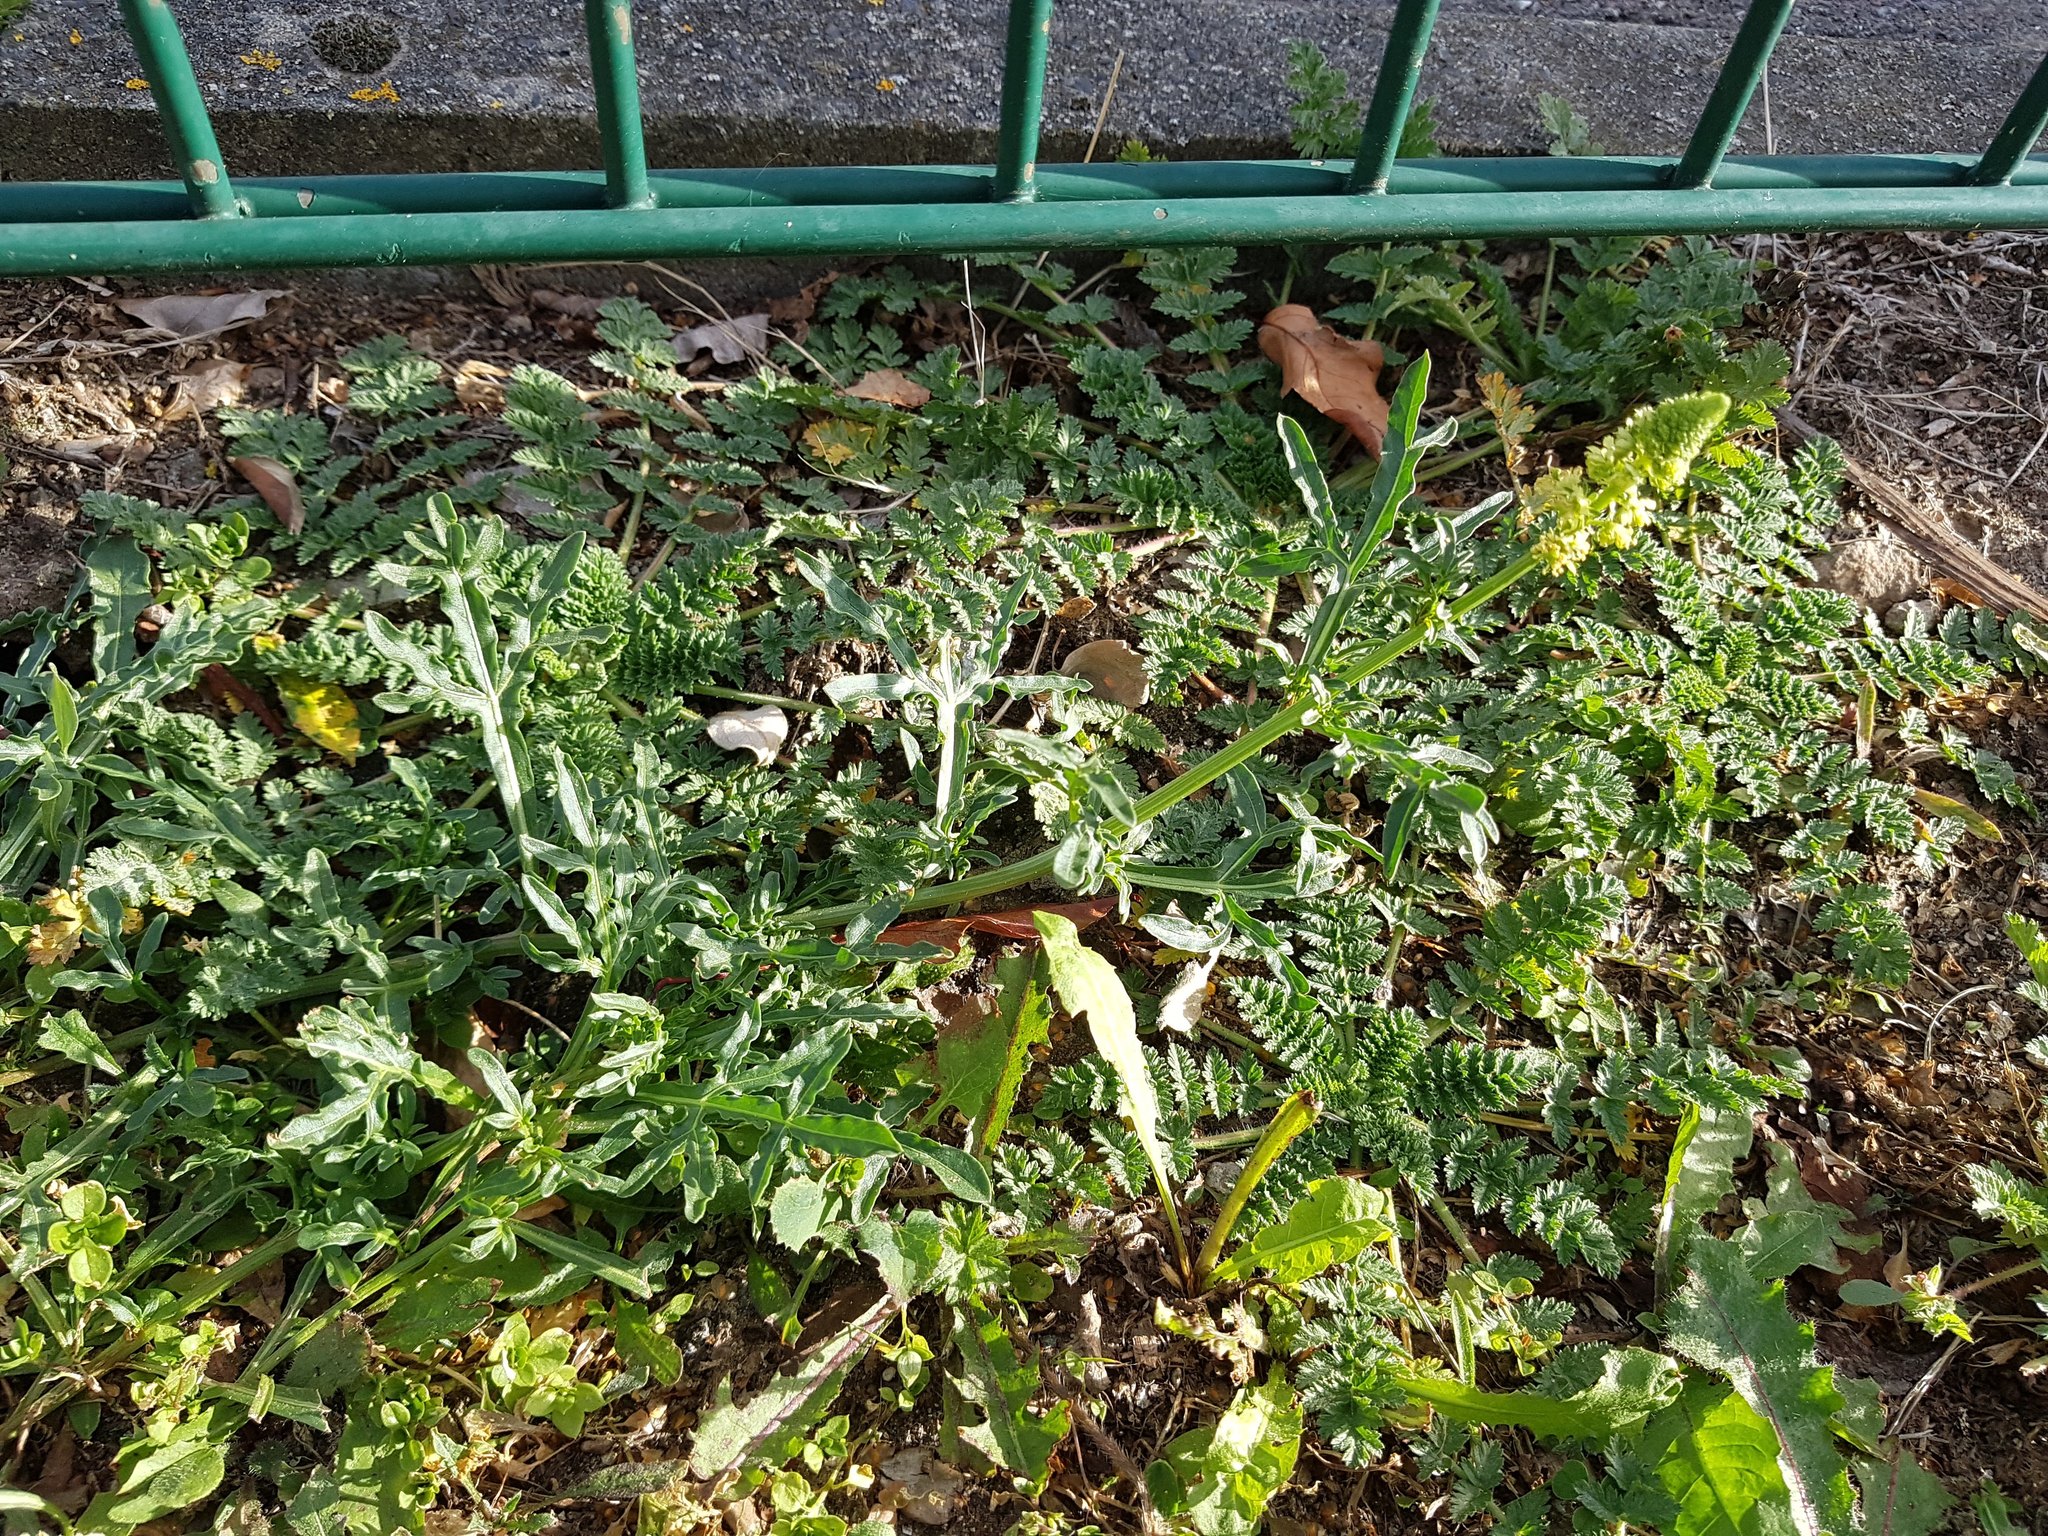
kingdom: Plantae
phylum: Tracheophyta
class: Magnoliopsida
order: Brassicales
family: Resedaceae
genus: Reseda
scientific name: Reseda lutea
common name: Wild mignonette
